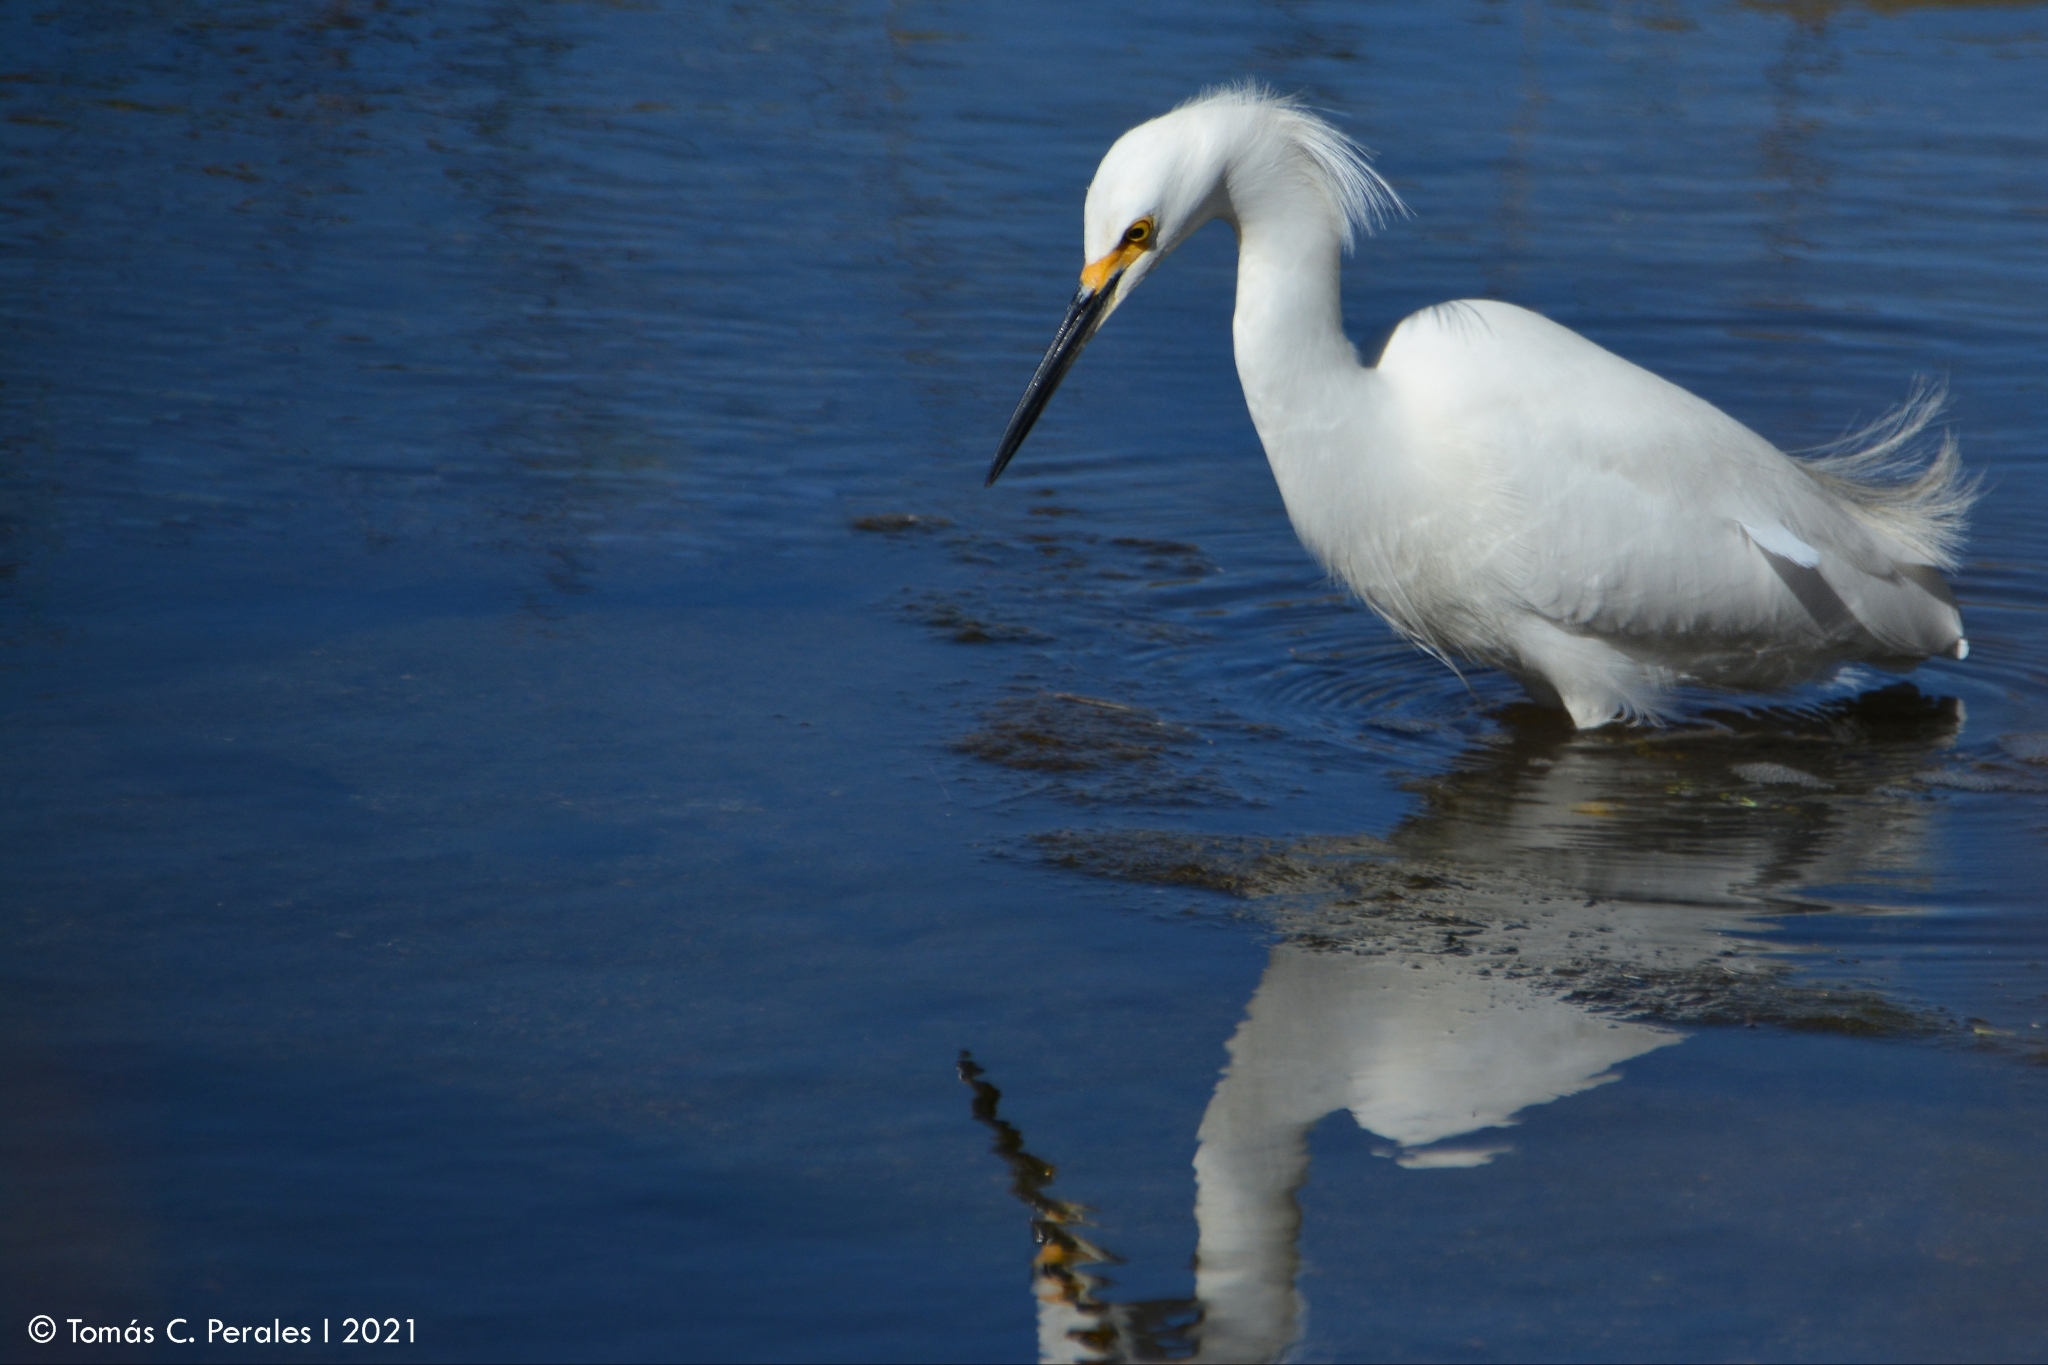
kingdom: Animalia
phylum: Chordata
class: Aves
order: Pelecaniformes
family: Ardeidae
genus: Egretta
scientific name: Egretta thula
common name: Snowy egret
